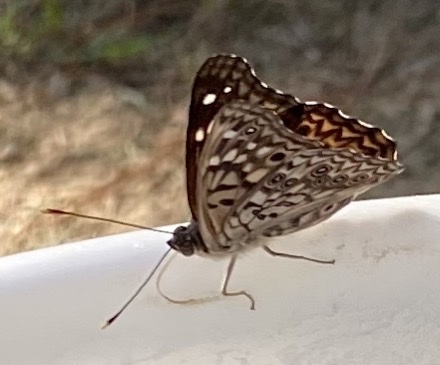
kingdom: Animalia
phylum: Arthropoda
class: Insecta
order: Lepidoptera
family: Nymphalidae
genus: Asterocampa
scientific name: Asterocampa celtis
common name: Hackberry emperor
